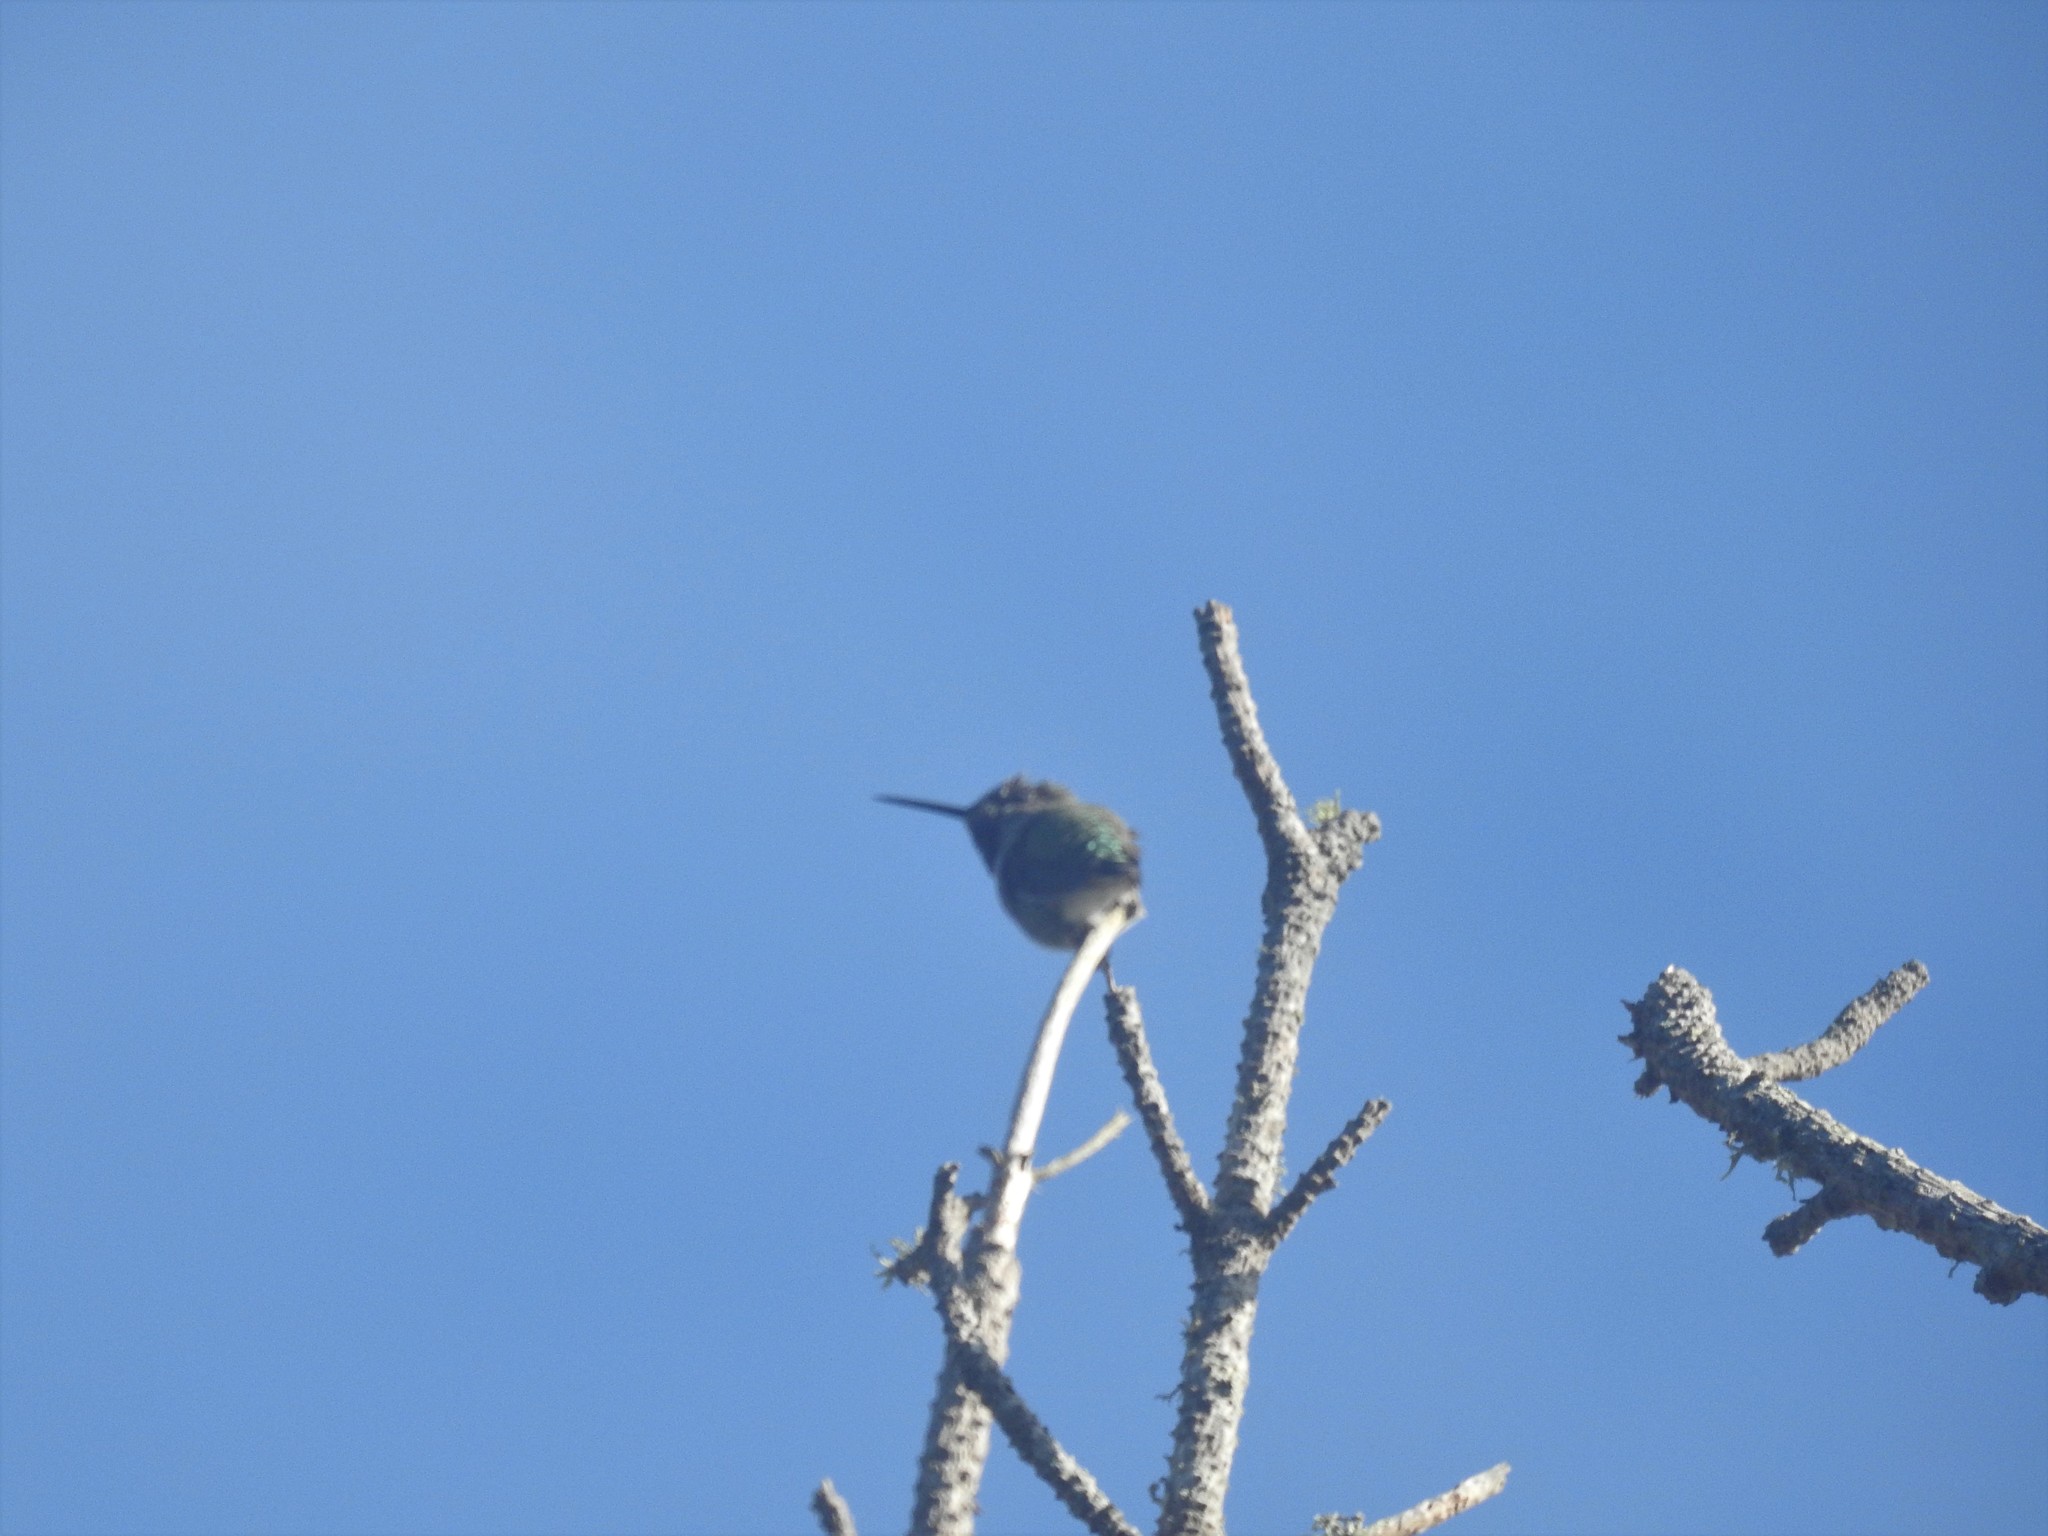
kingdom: Animalia
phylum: Chordata
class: Aves
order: Apodiformes
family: Trochilidae
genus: Calypte
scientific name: Calypte anna
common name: Anna's hummingbird
